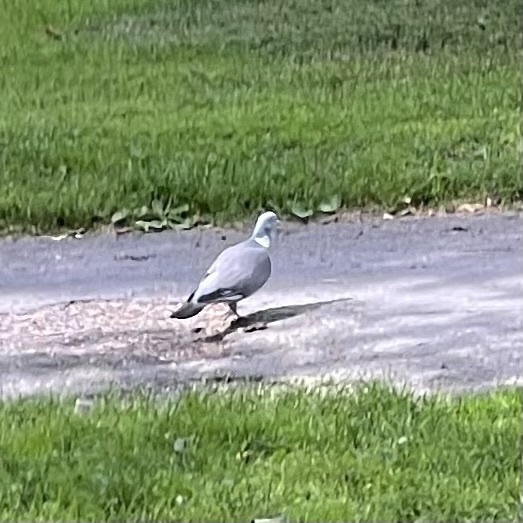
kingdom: Animalia
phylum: Chordata
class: Aves
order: Columbiformes
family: Columbidae
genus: Columba
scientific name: Columba palumbus
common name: Common wood pigeon
